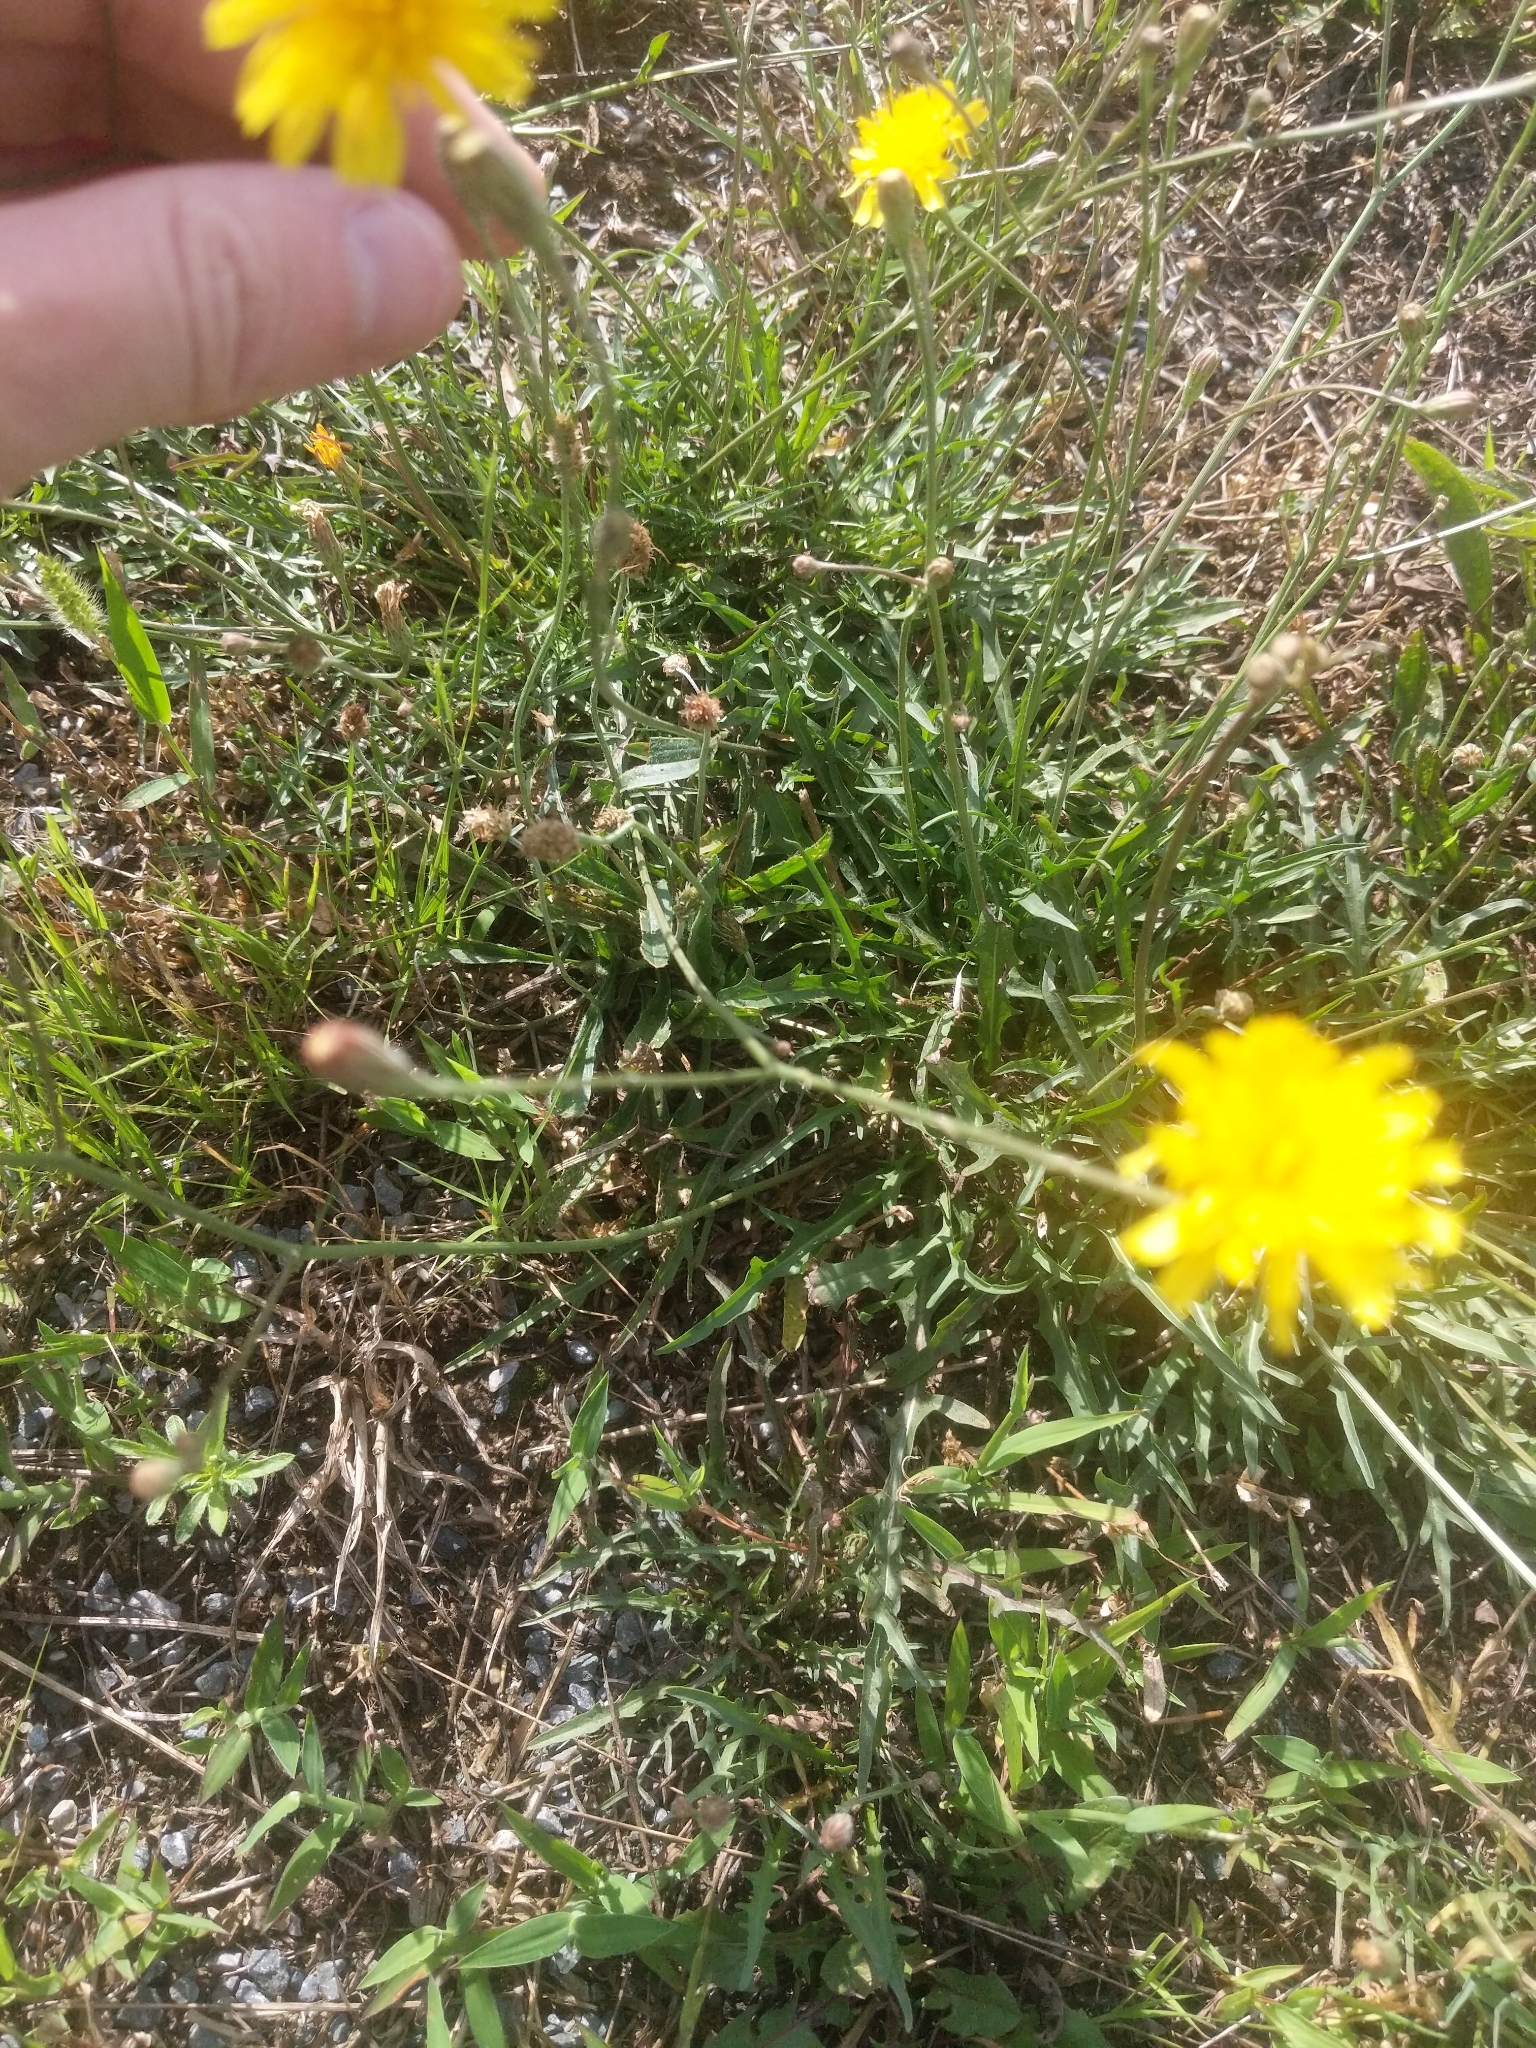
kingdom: Plantae
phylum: Tracheophyta
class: Magnoliopsida
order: Asterales
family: Asteraceae
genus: Scorzoneroides
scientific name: Scorzoneroides autumnalis
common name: Autumn hawkbit
